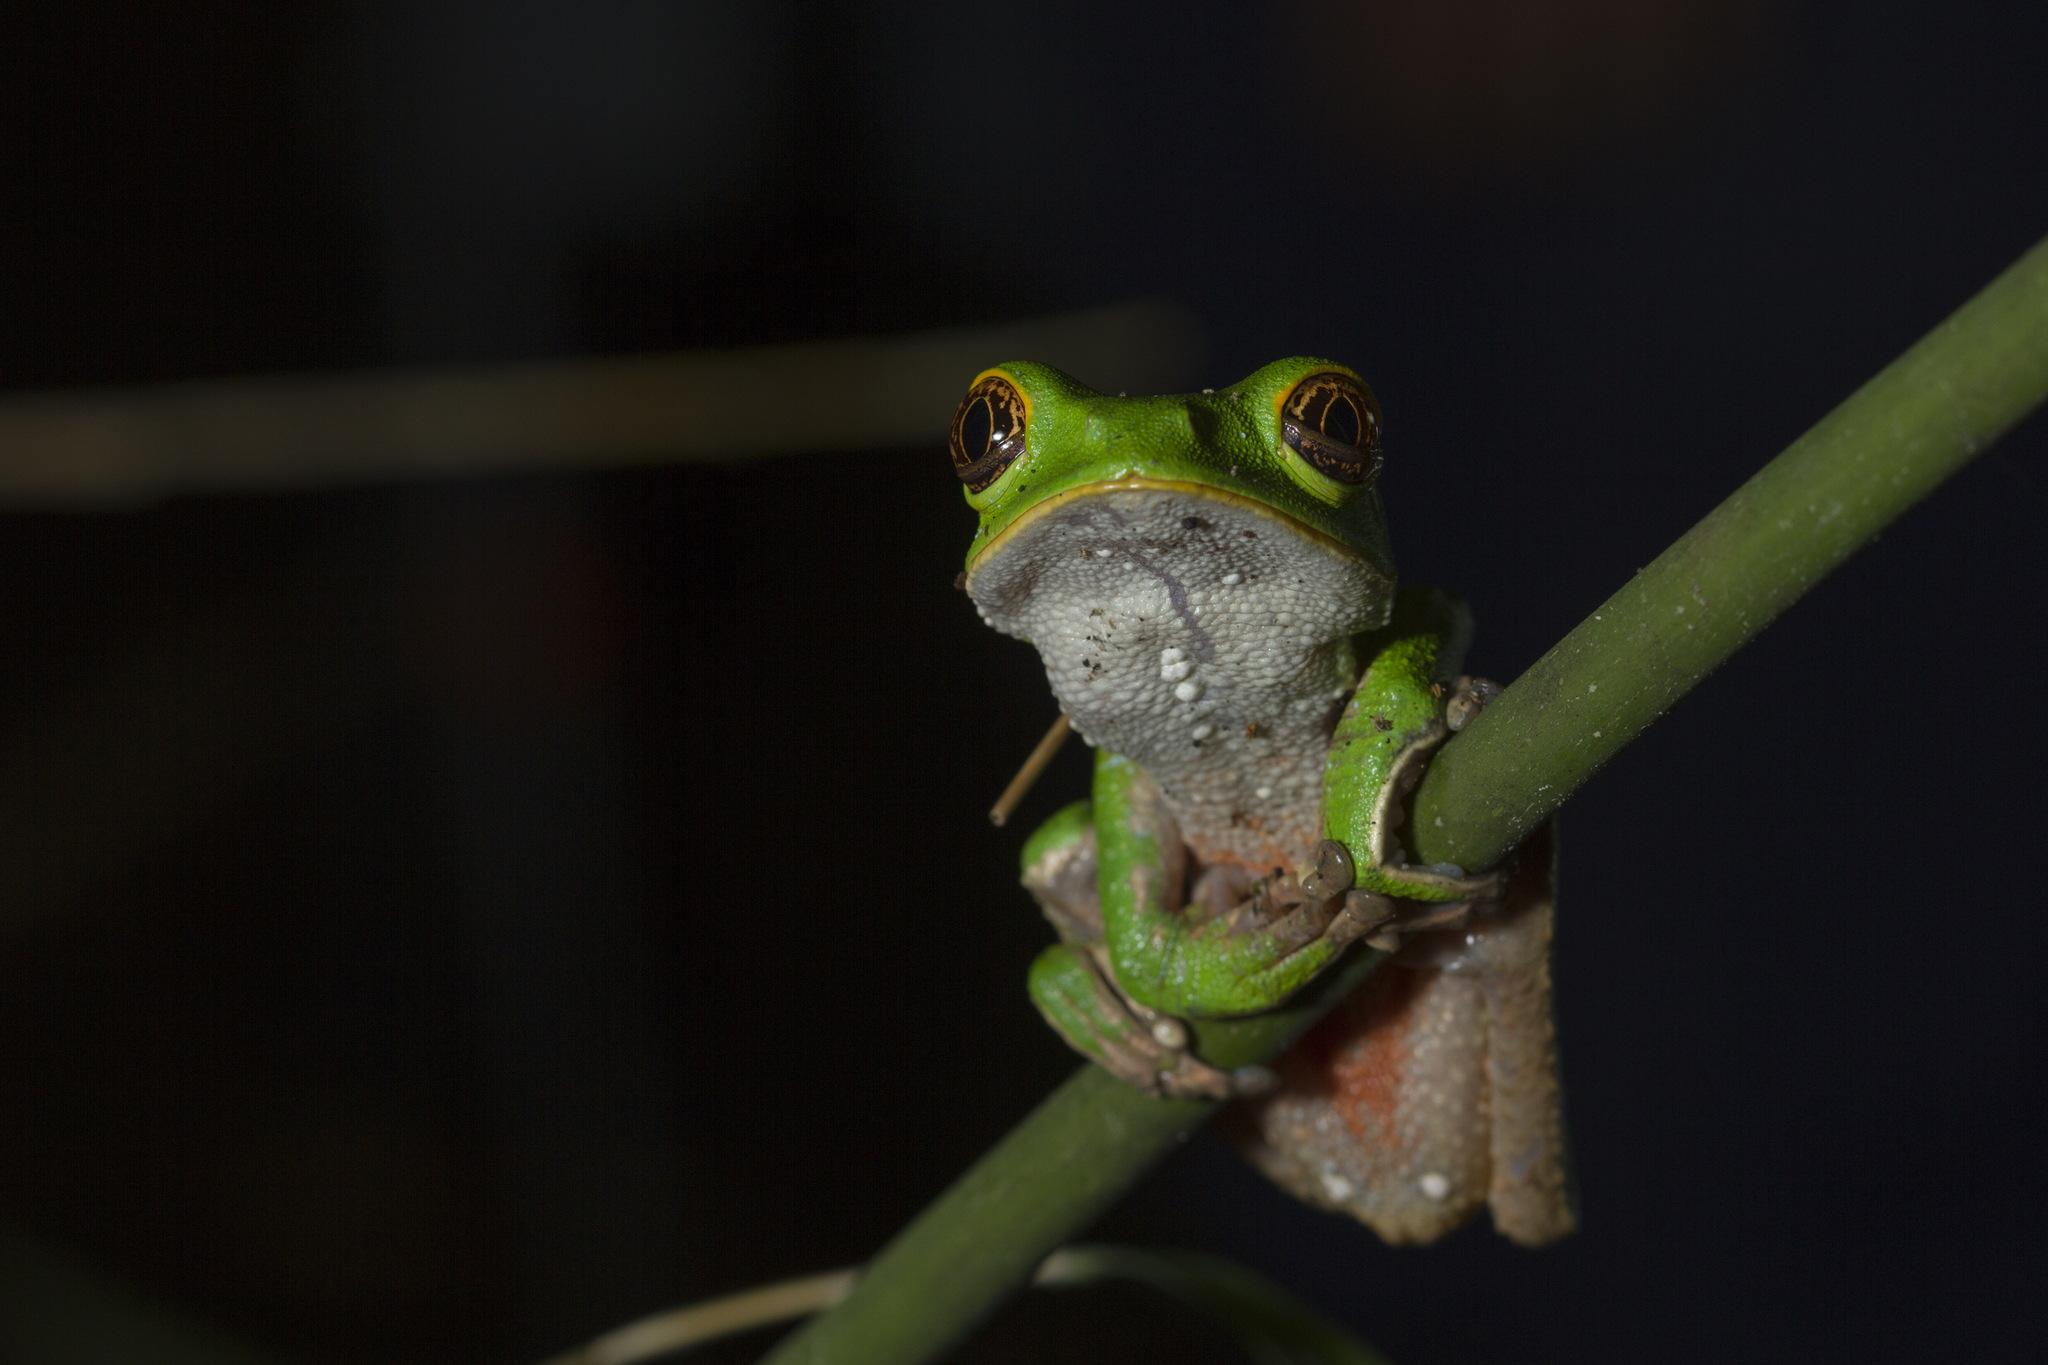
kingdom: Animalia
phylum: Chordata
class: Amphibia
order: Anura
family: Phyllomedusidae
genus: Phyllomedusa
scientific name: Phyllomedusa venusta
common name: Lovely leaf frog
